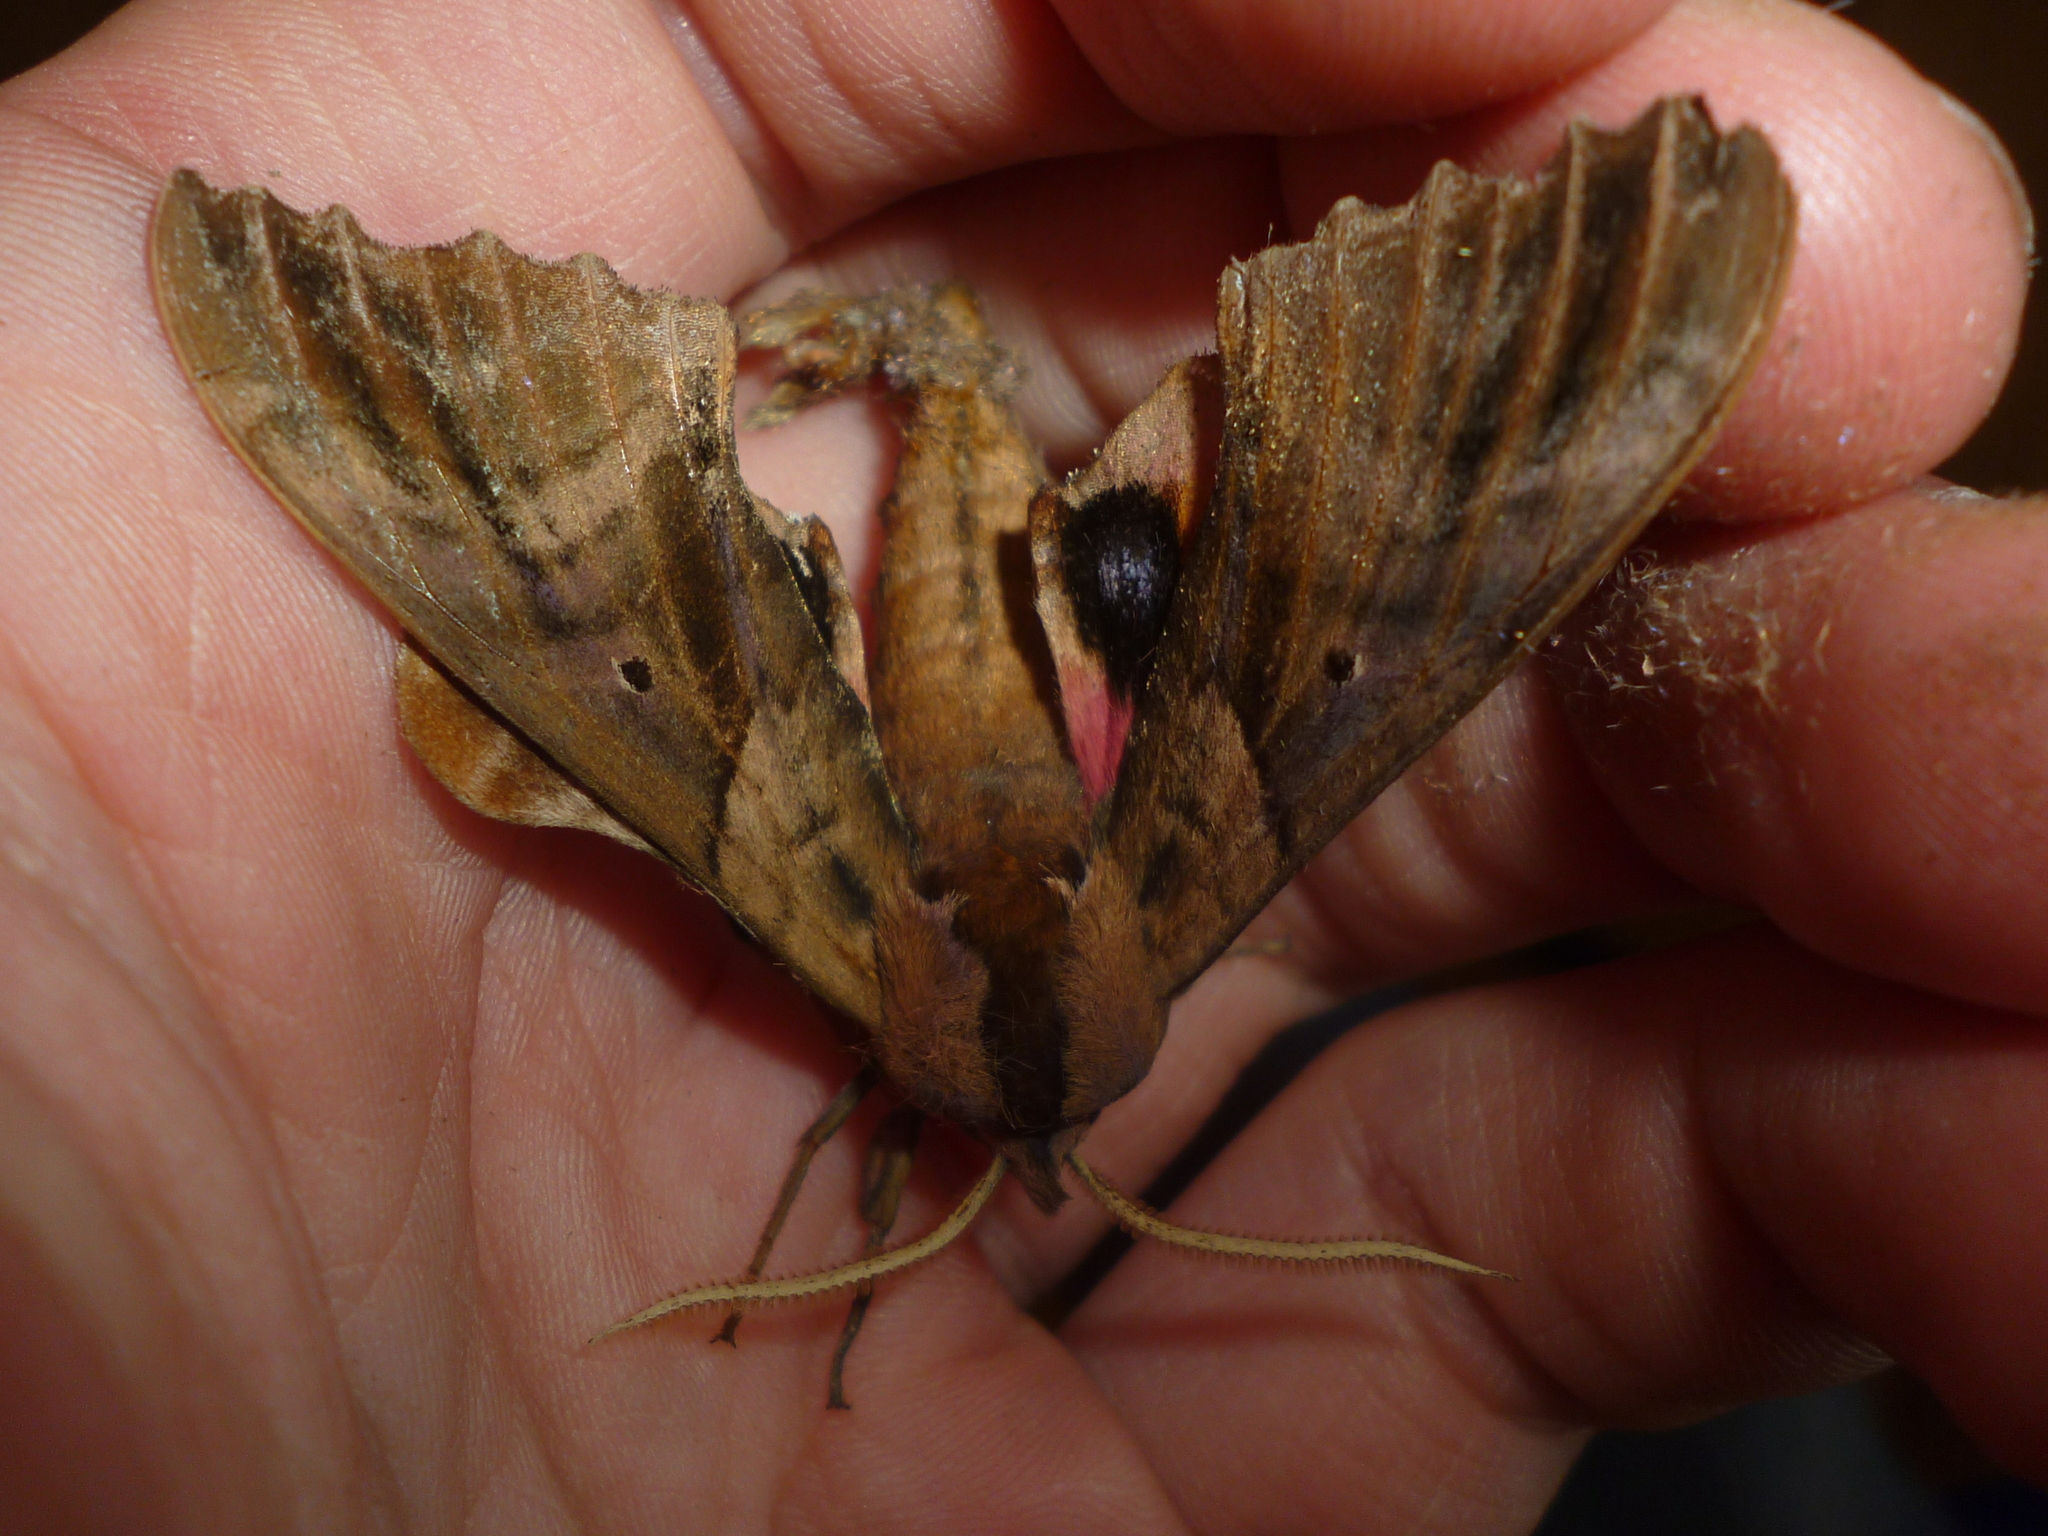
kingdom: Animalia
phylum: Arthropoda
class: Insecta
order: Lepidoptera
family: Sphingidae
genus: Paonias
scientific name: Paonias excaecata
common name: Blind-eyed sphinx
